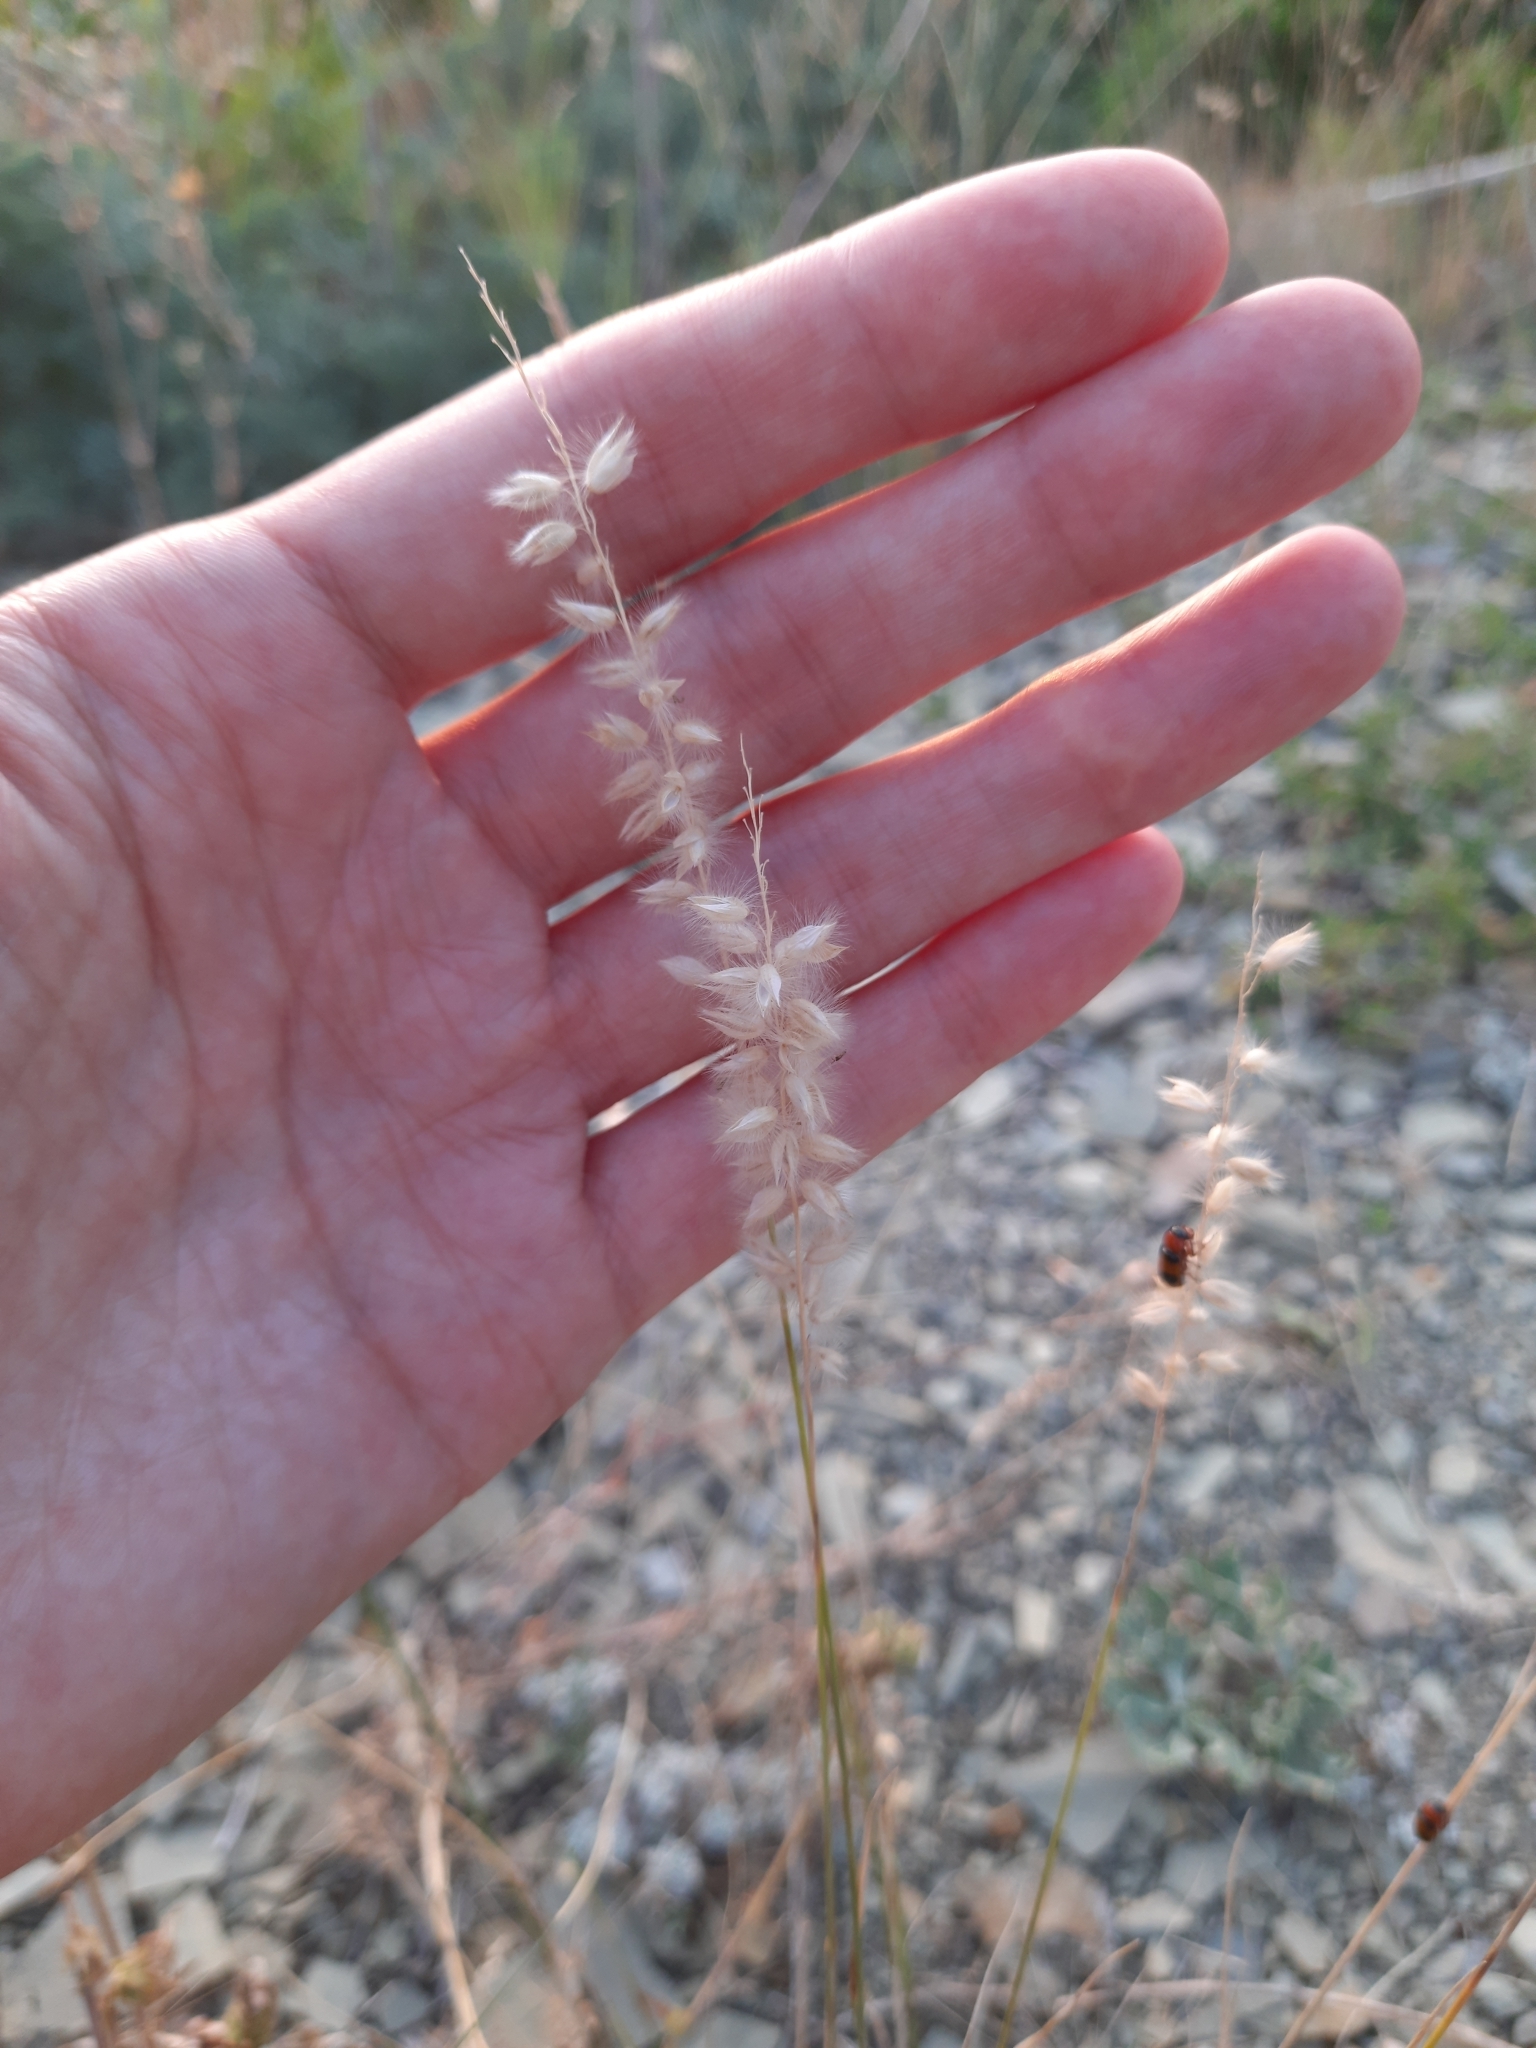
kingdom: Plantae
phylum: Tracheophyta
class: Liliopsida
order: Poales
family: Poaceae
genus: Melica
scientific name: Melica transsilvanica
